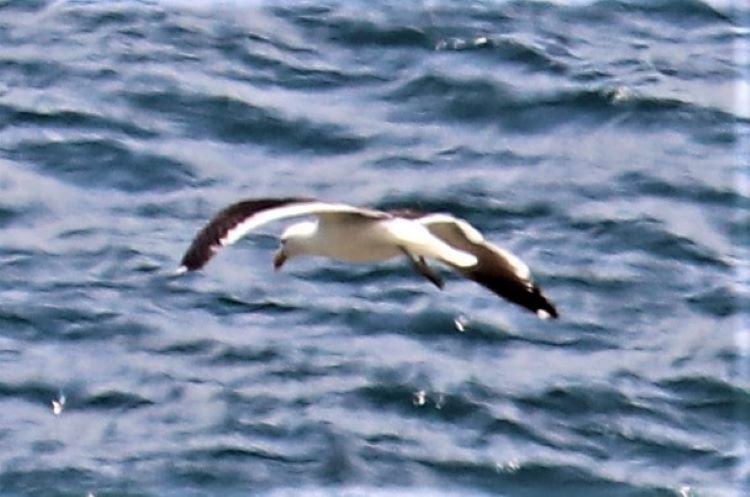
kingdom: Animalia
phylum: Chordata
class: Aves
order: Charadriiformes
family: Laridae
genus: Larus
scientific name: Larus dominicanus
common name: Kelp gull
